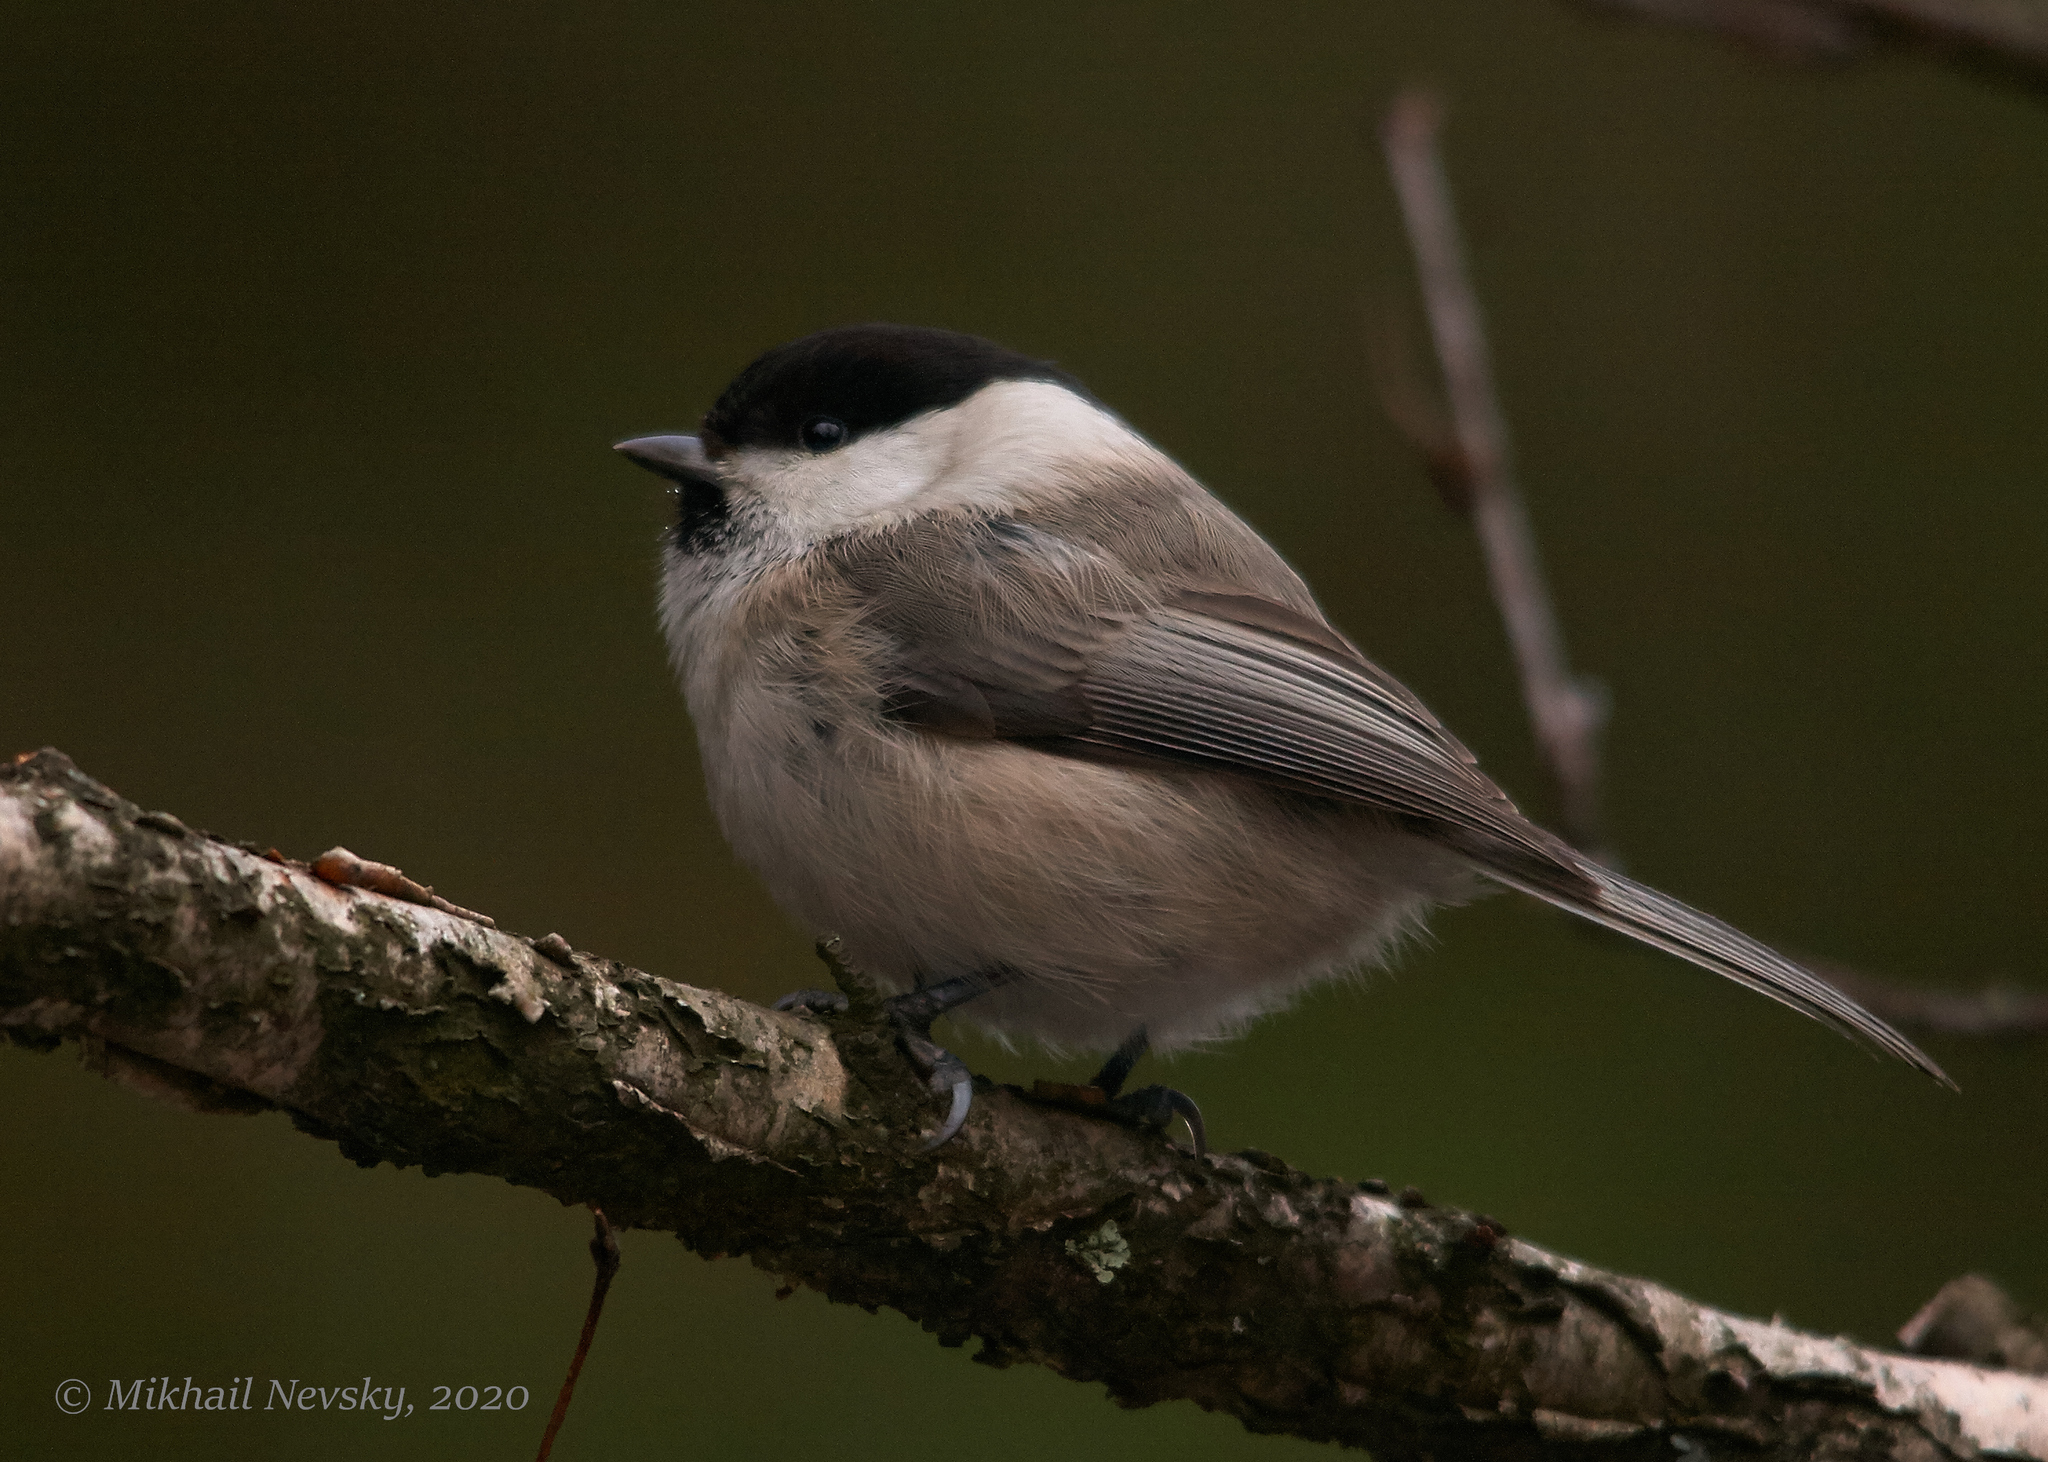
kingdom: Animalia
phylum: Chordata
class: Aves
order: Passeriformes
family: Paridae
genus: Poecile
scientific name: Poecile montanus
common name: Willow tit
